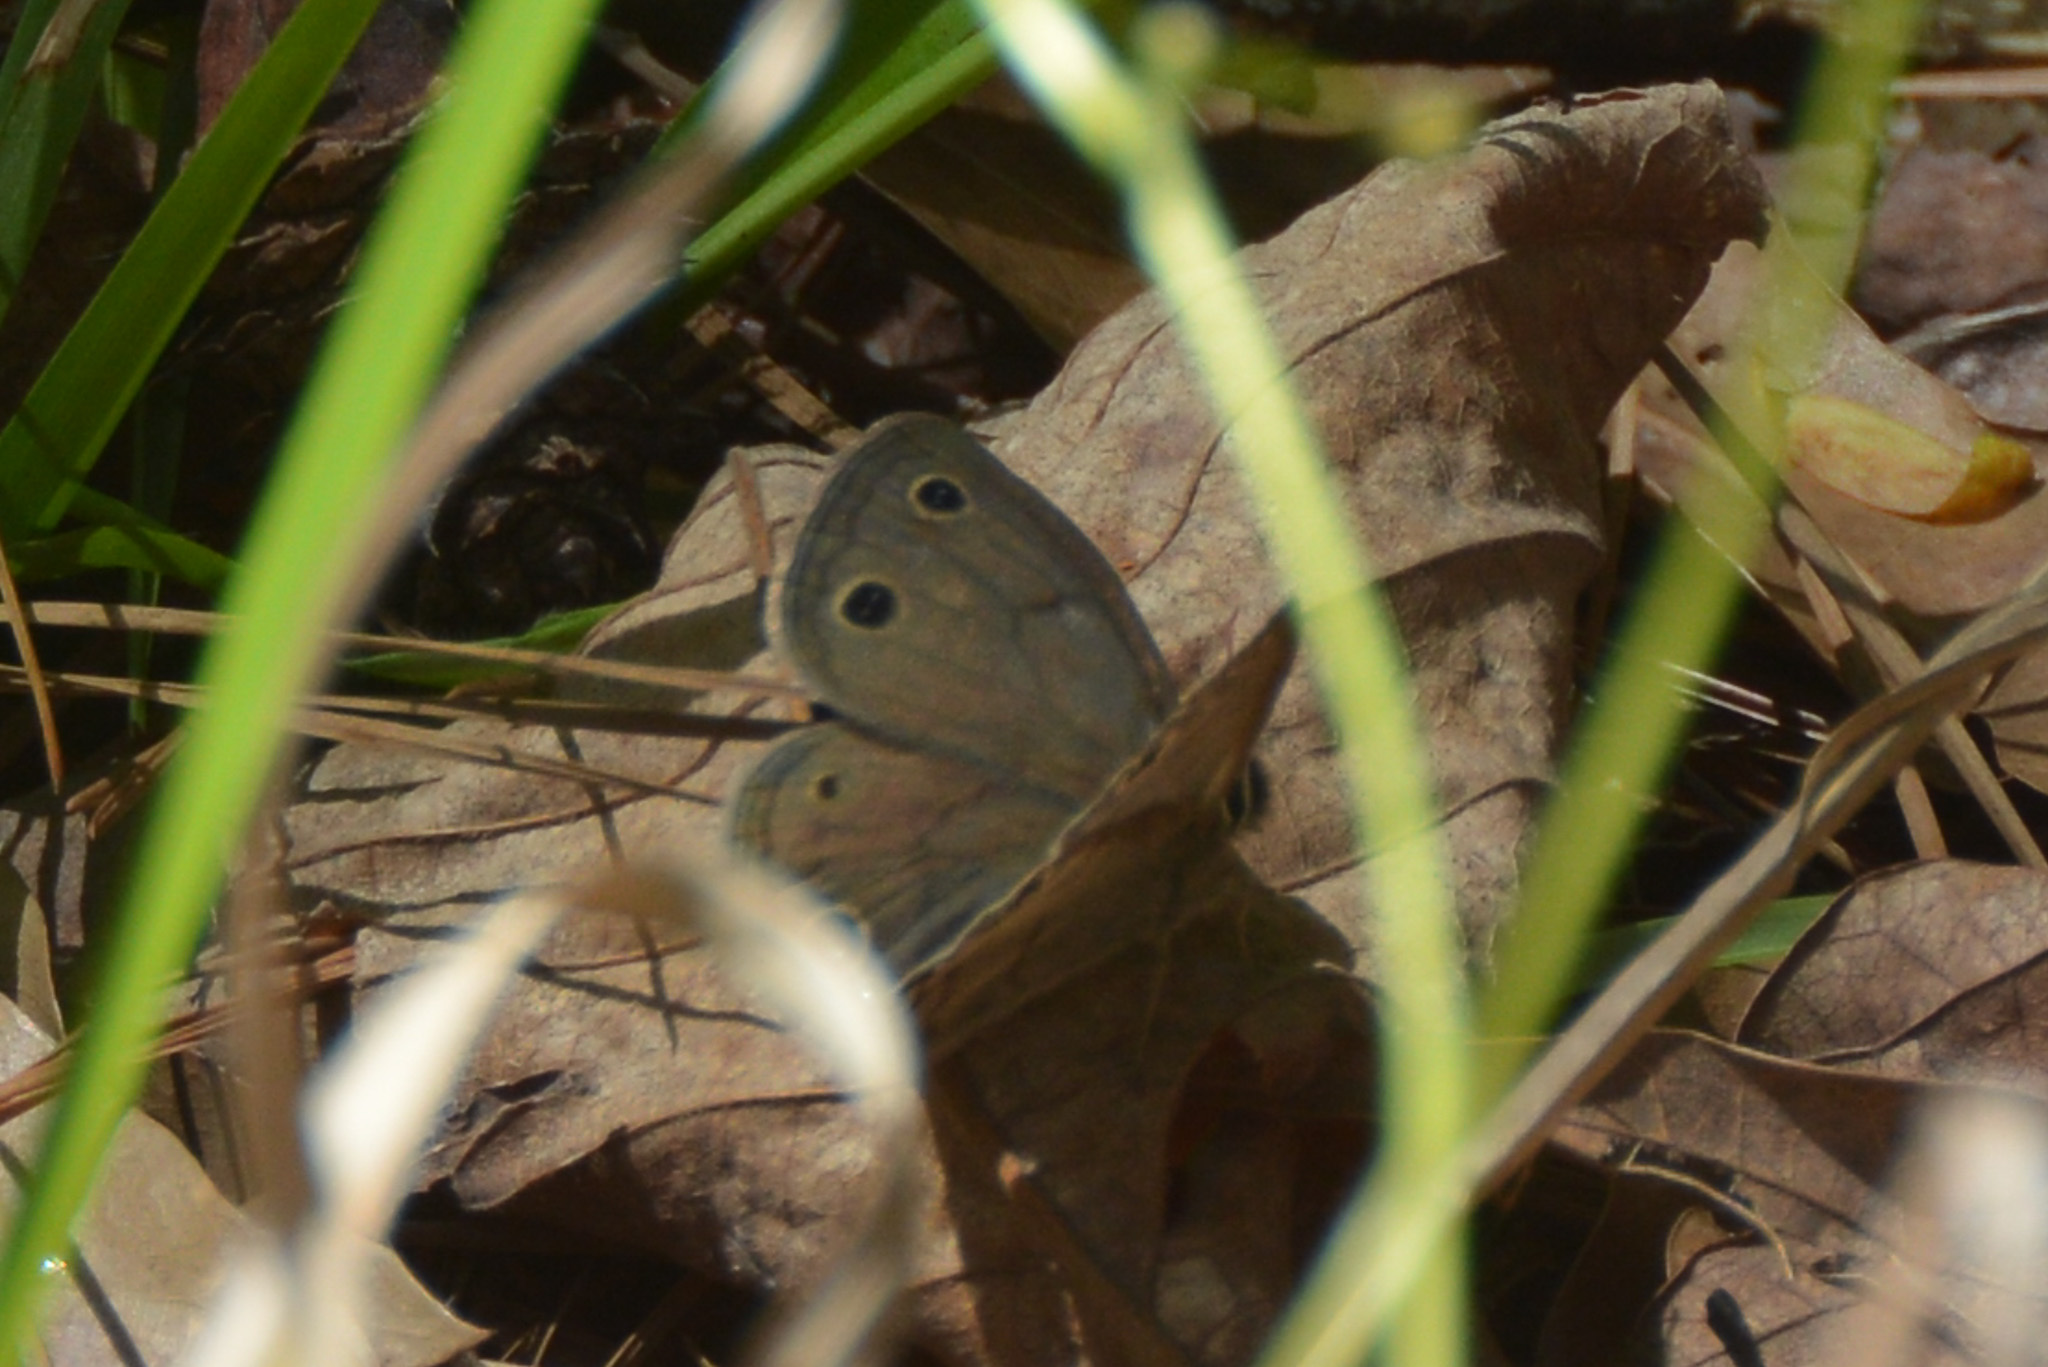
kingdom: Animalia
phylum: Arthropoda
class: Insecta
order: Lepidoptera
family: Nymphalidae
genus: Euptychia
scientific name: Euptychia cymela
